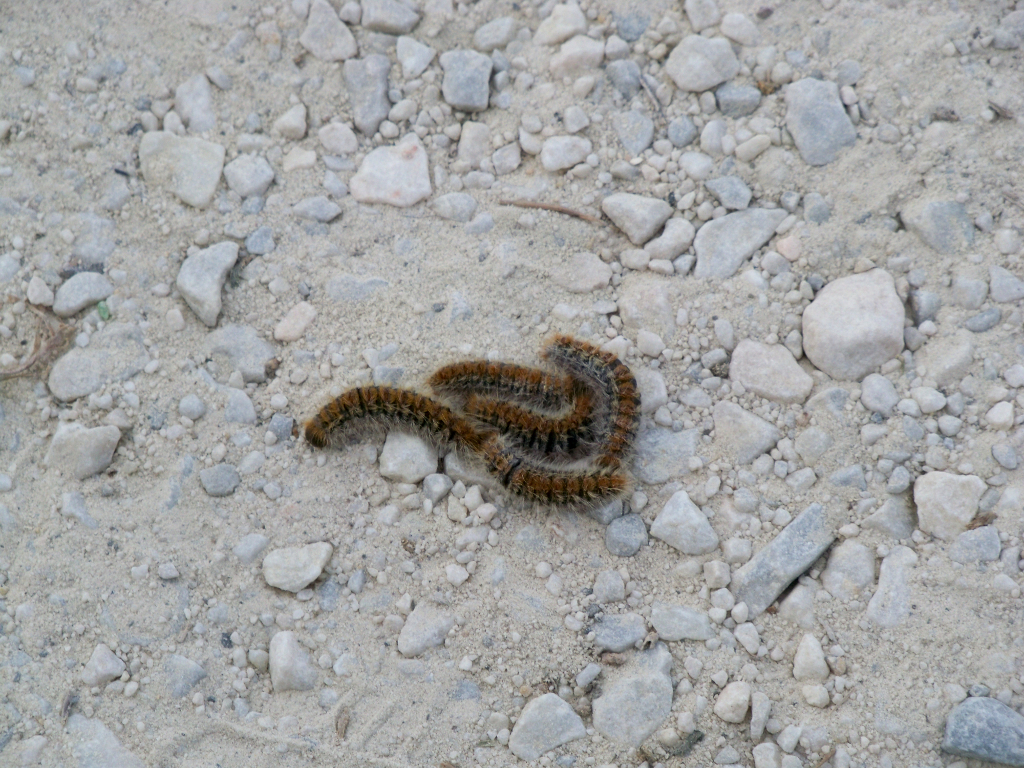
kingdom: Animalia
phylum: Arthropoda
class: Insecta
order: Lepidoptera
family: Notodontidae
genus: Thaumetopoea
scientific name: Thaumetopoea pityocampa
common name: Pine processionary
